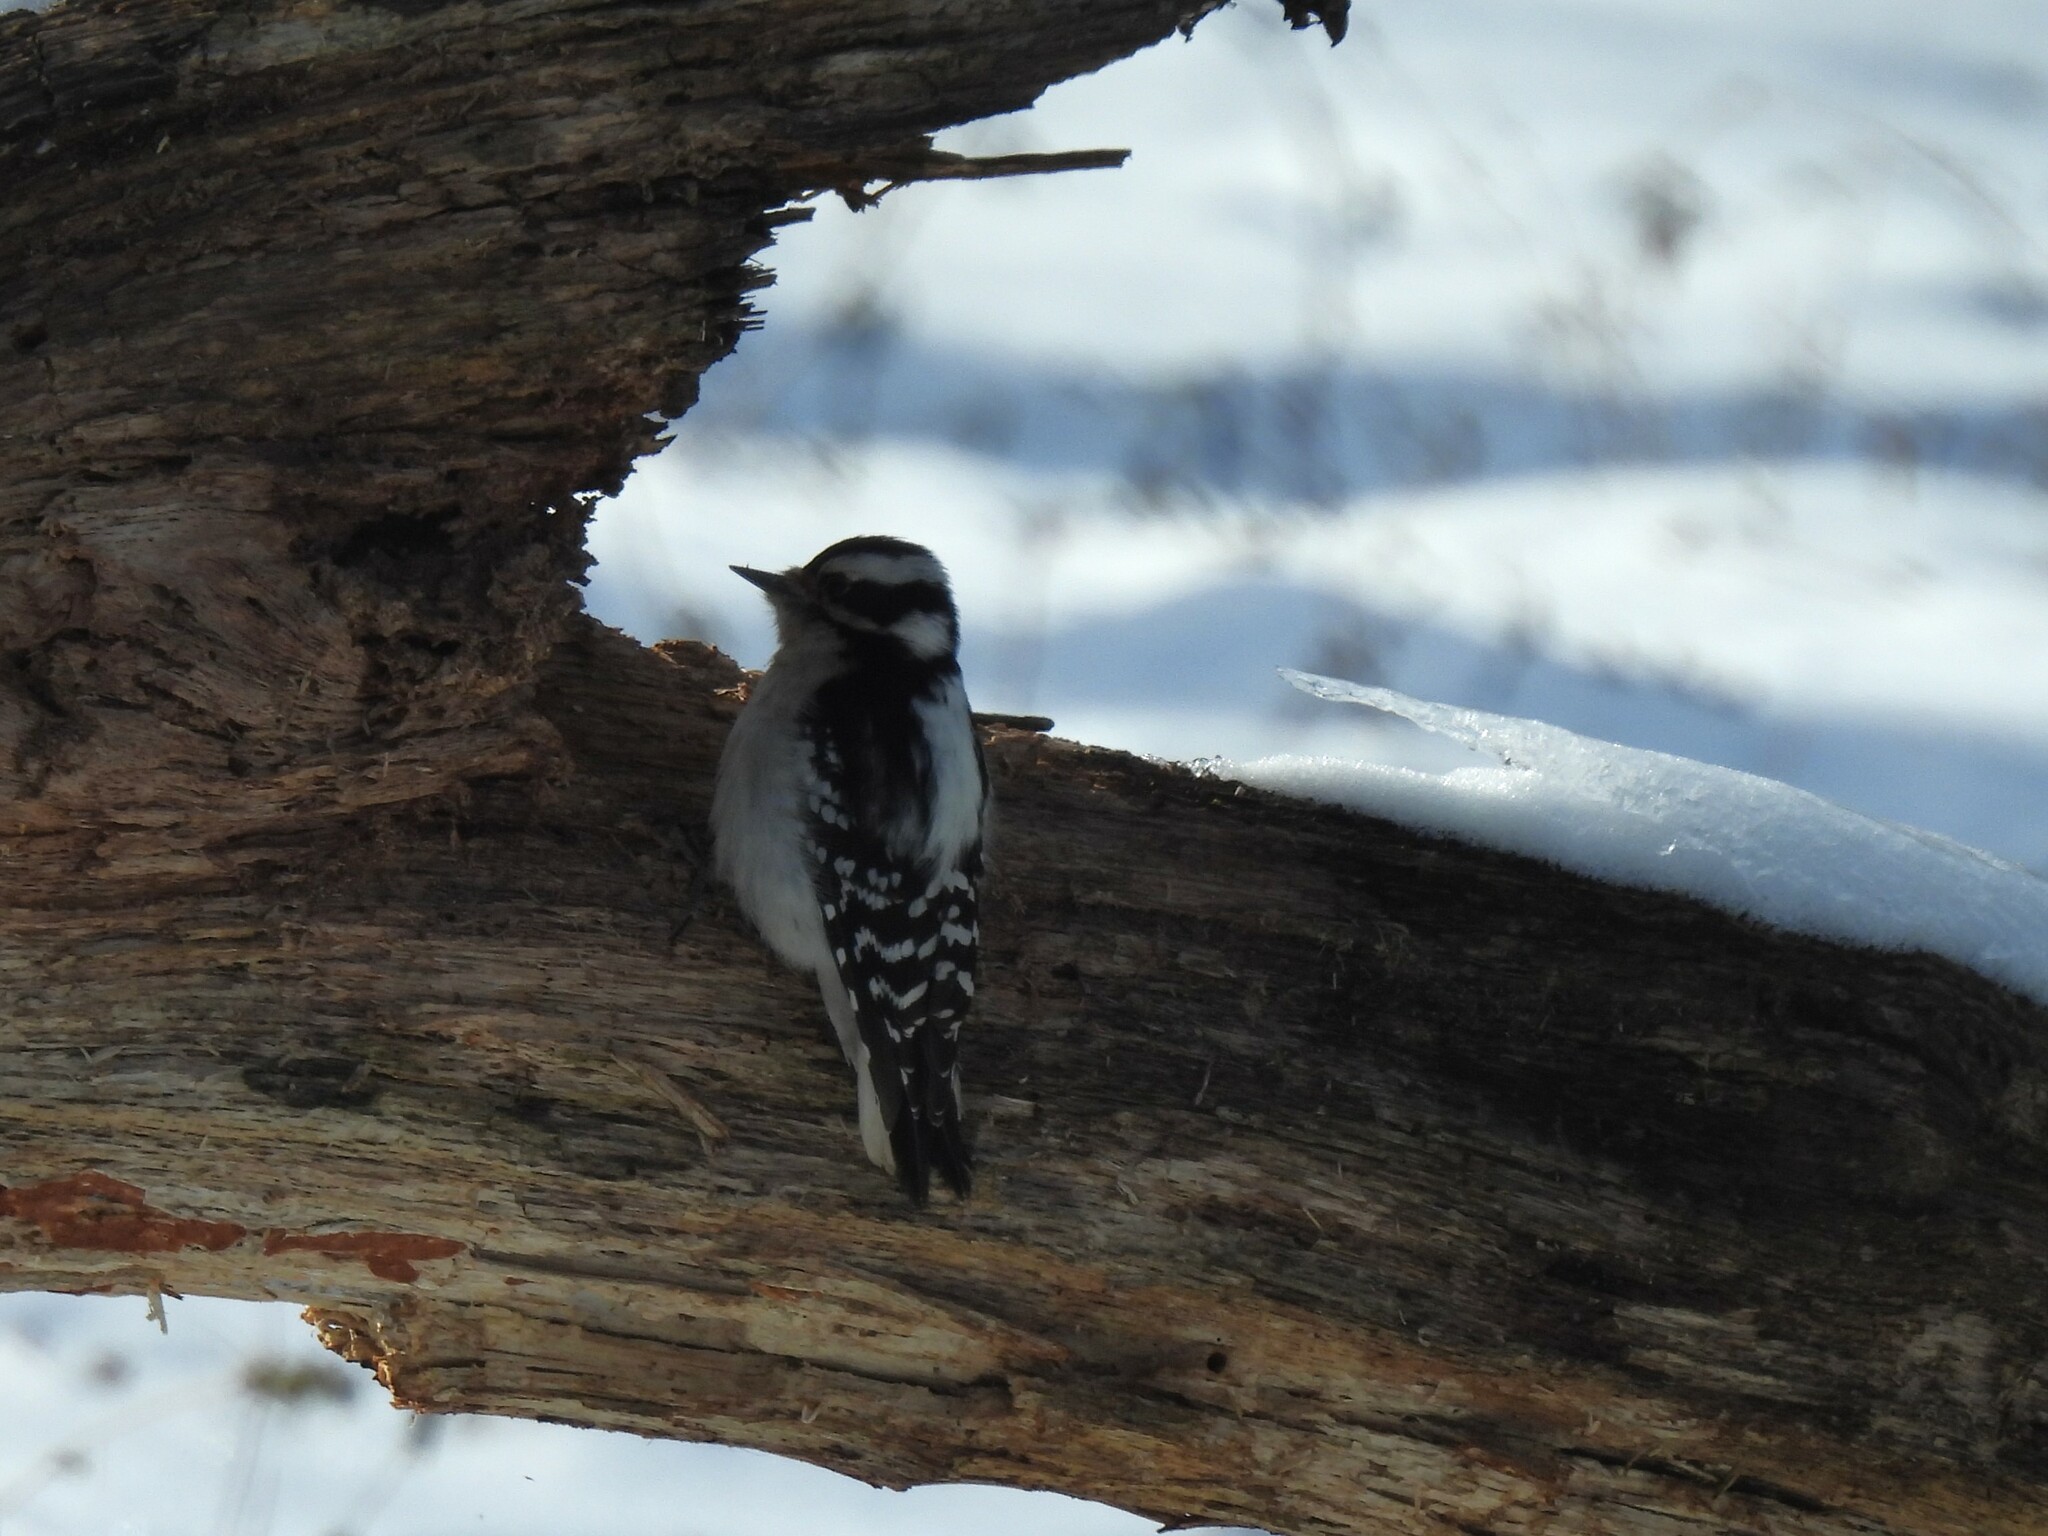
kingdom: Animalia
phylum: Chordata
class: Aves
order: Piciformes
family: Picidae
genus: Dryobates
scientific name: Dryobates pubescens
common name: Downy woodpecker
